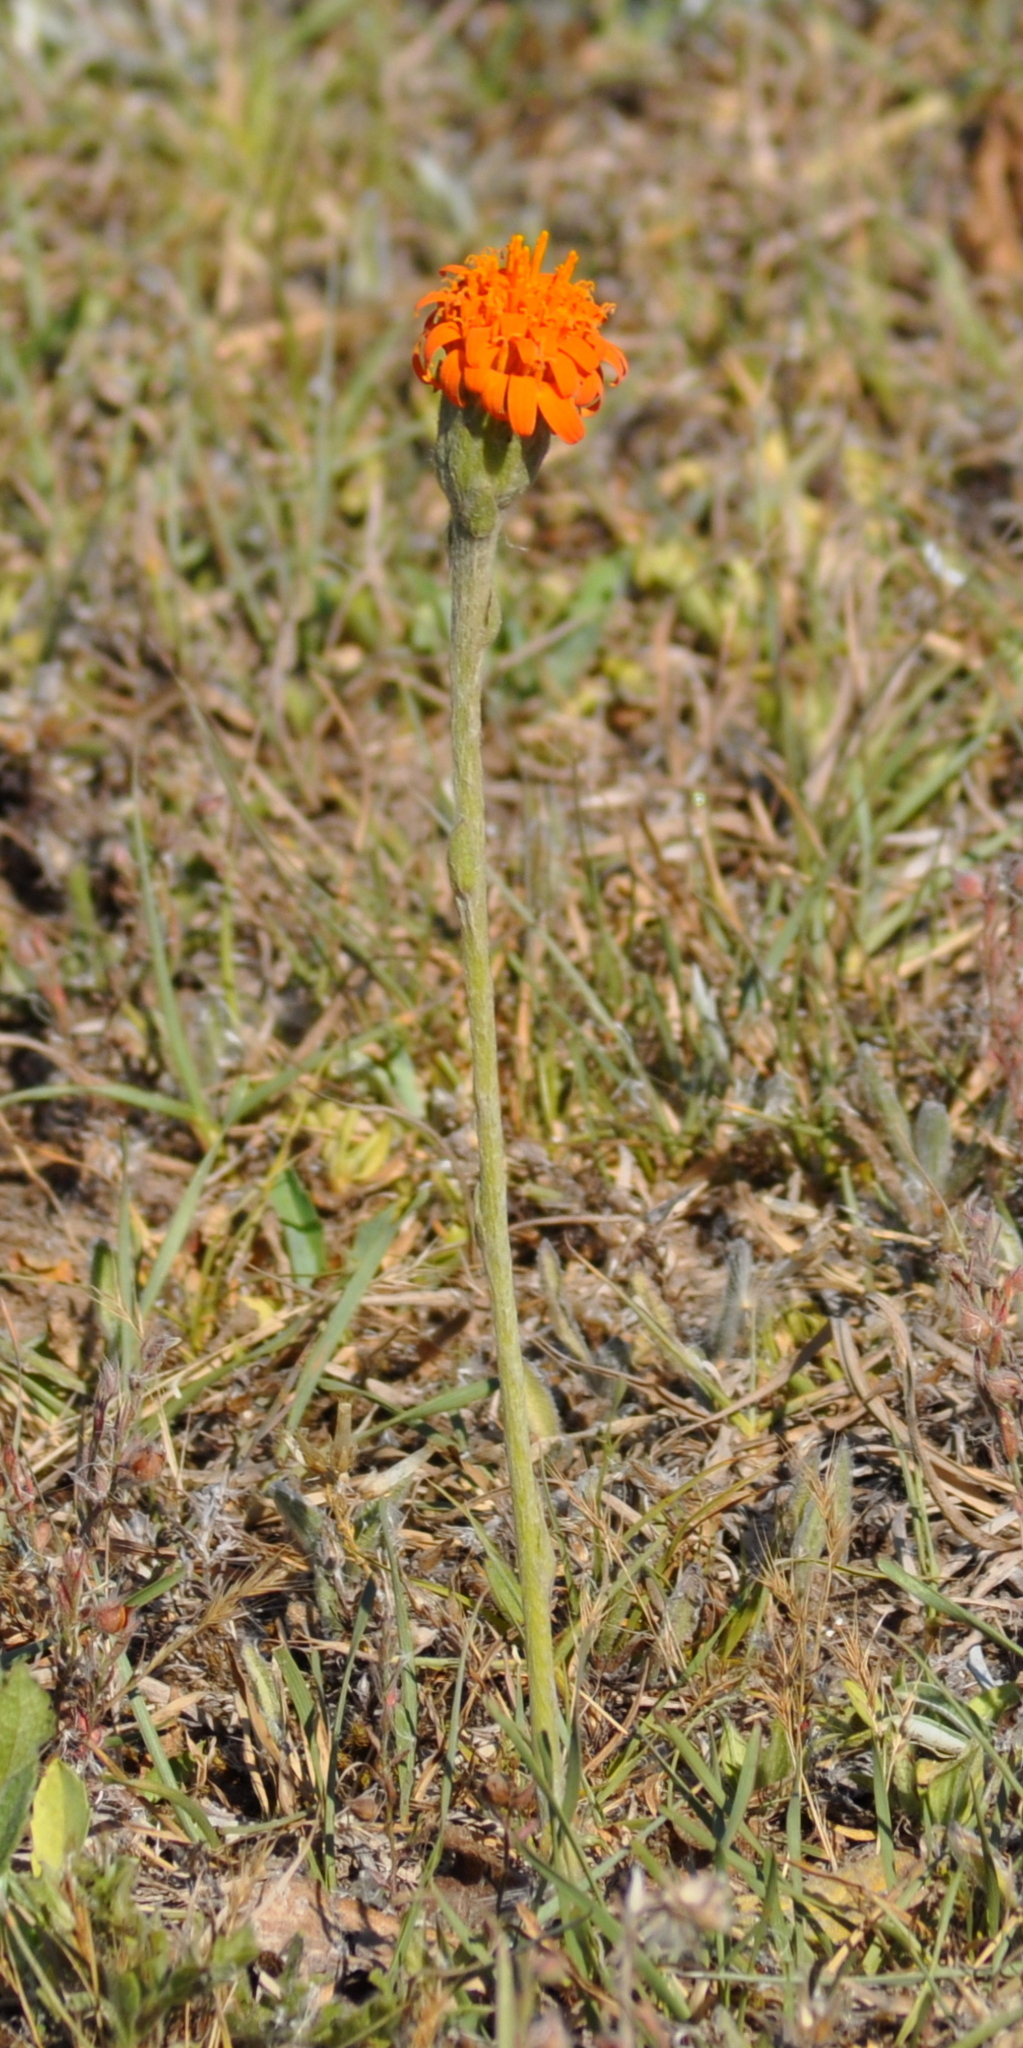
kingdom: Plantae
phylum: Tracheophyta
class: Magnoliopsida
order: Asterales
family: Asteraceae
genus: Criscia
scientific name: Criscia stricta
